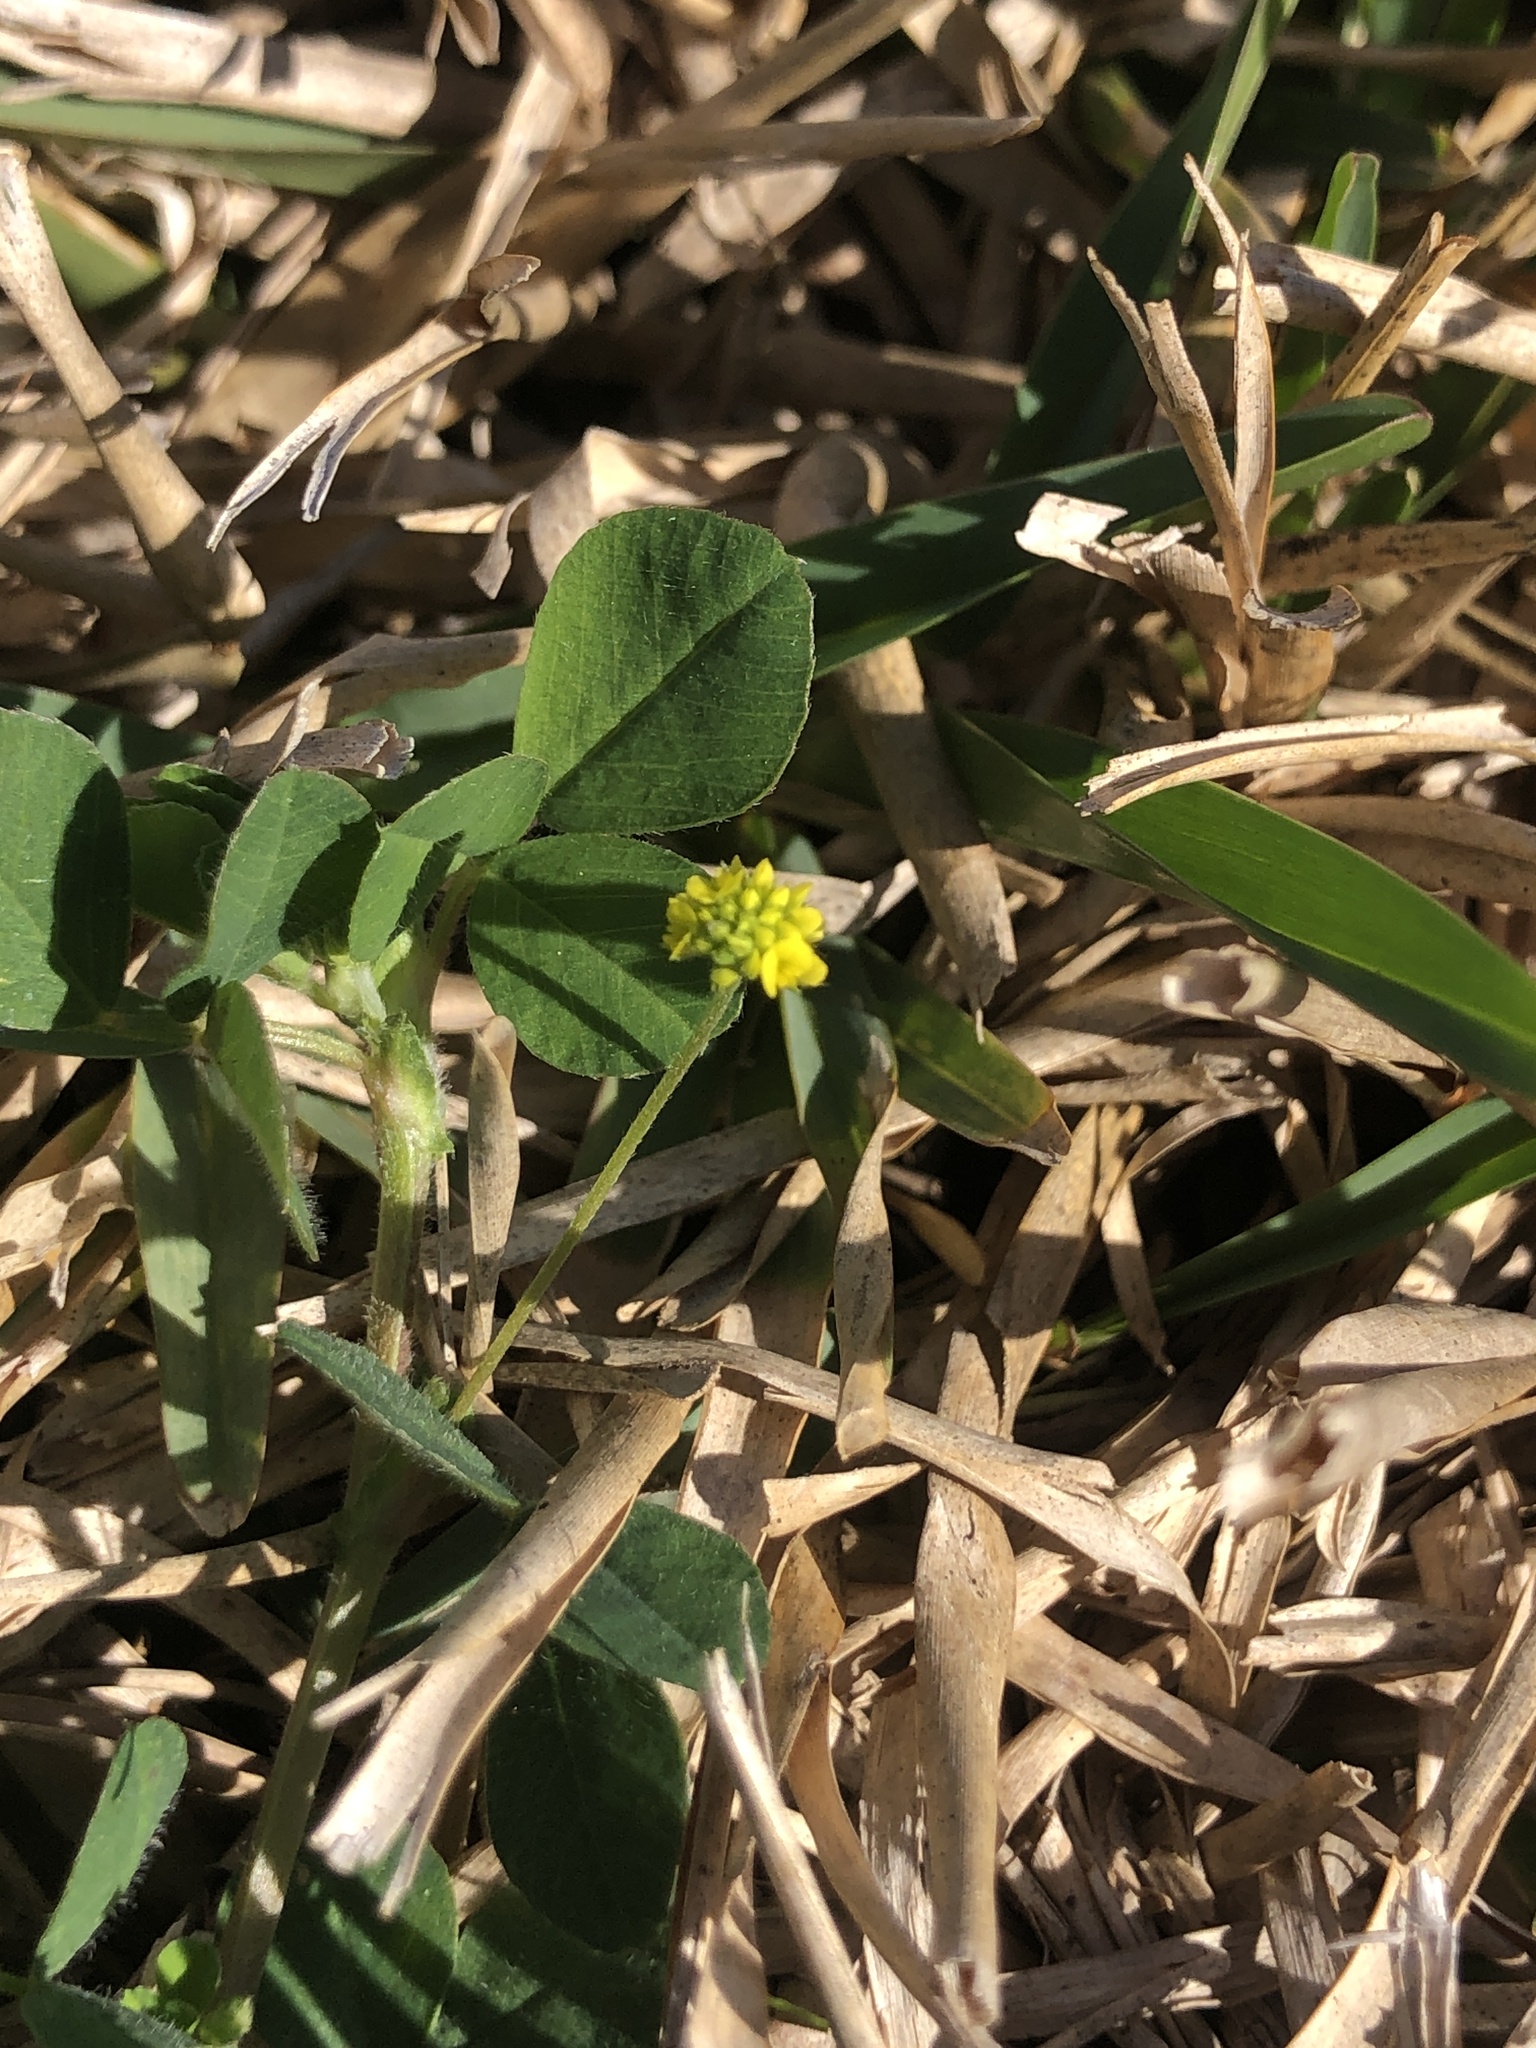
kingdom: Plantae
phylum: Tracheophyta
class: Magnoliopsida
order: Fabales
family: Fabaceae
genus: Medicago
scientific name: Medicago lupulina
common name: Black medick
